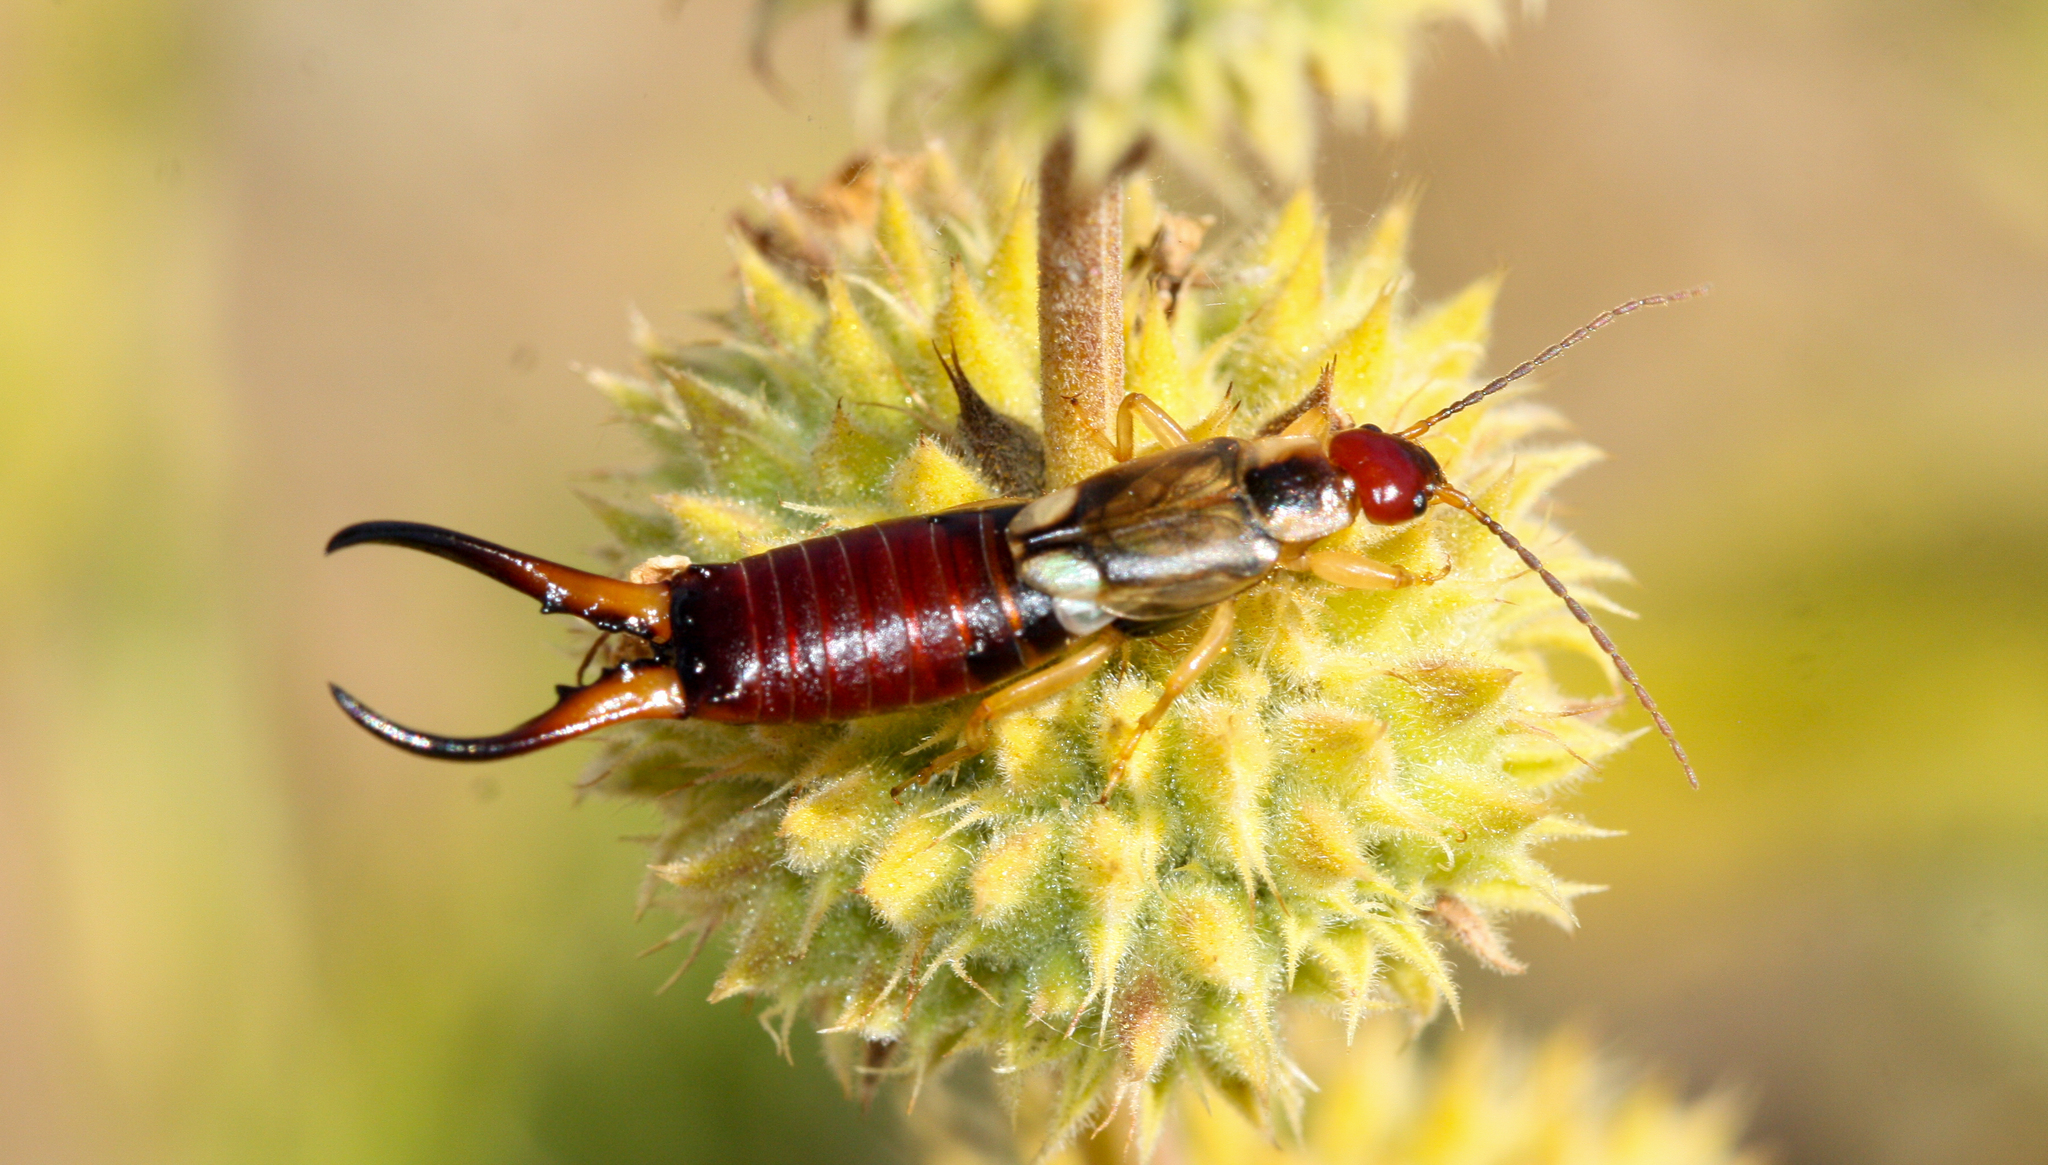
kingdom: Animalia
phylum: Arthropoda
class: Insecta
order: Dermaptera
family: Forficulidae
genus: Forficula
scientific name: Forficula
